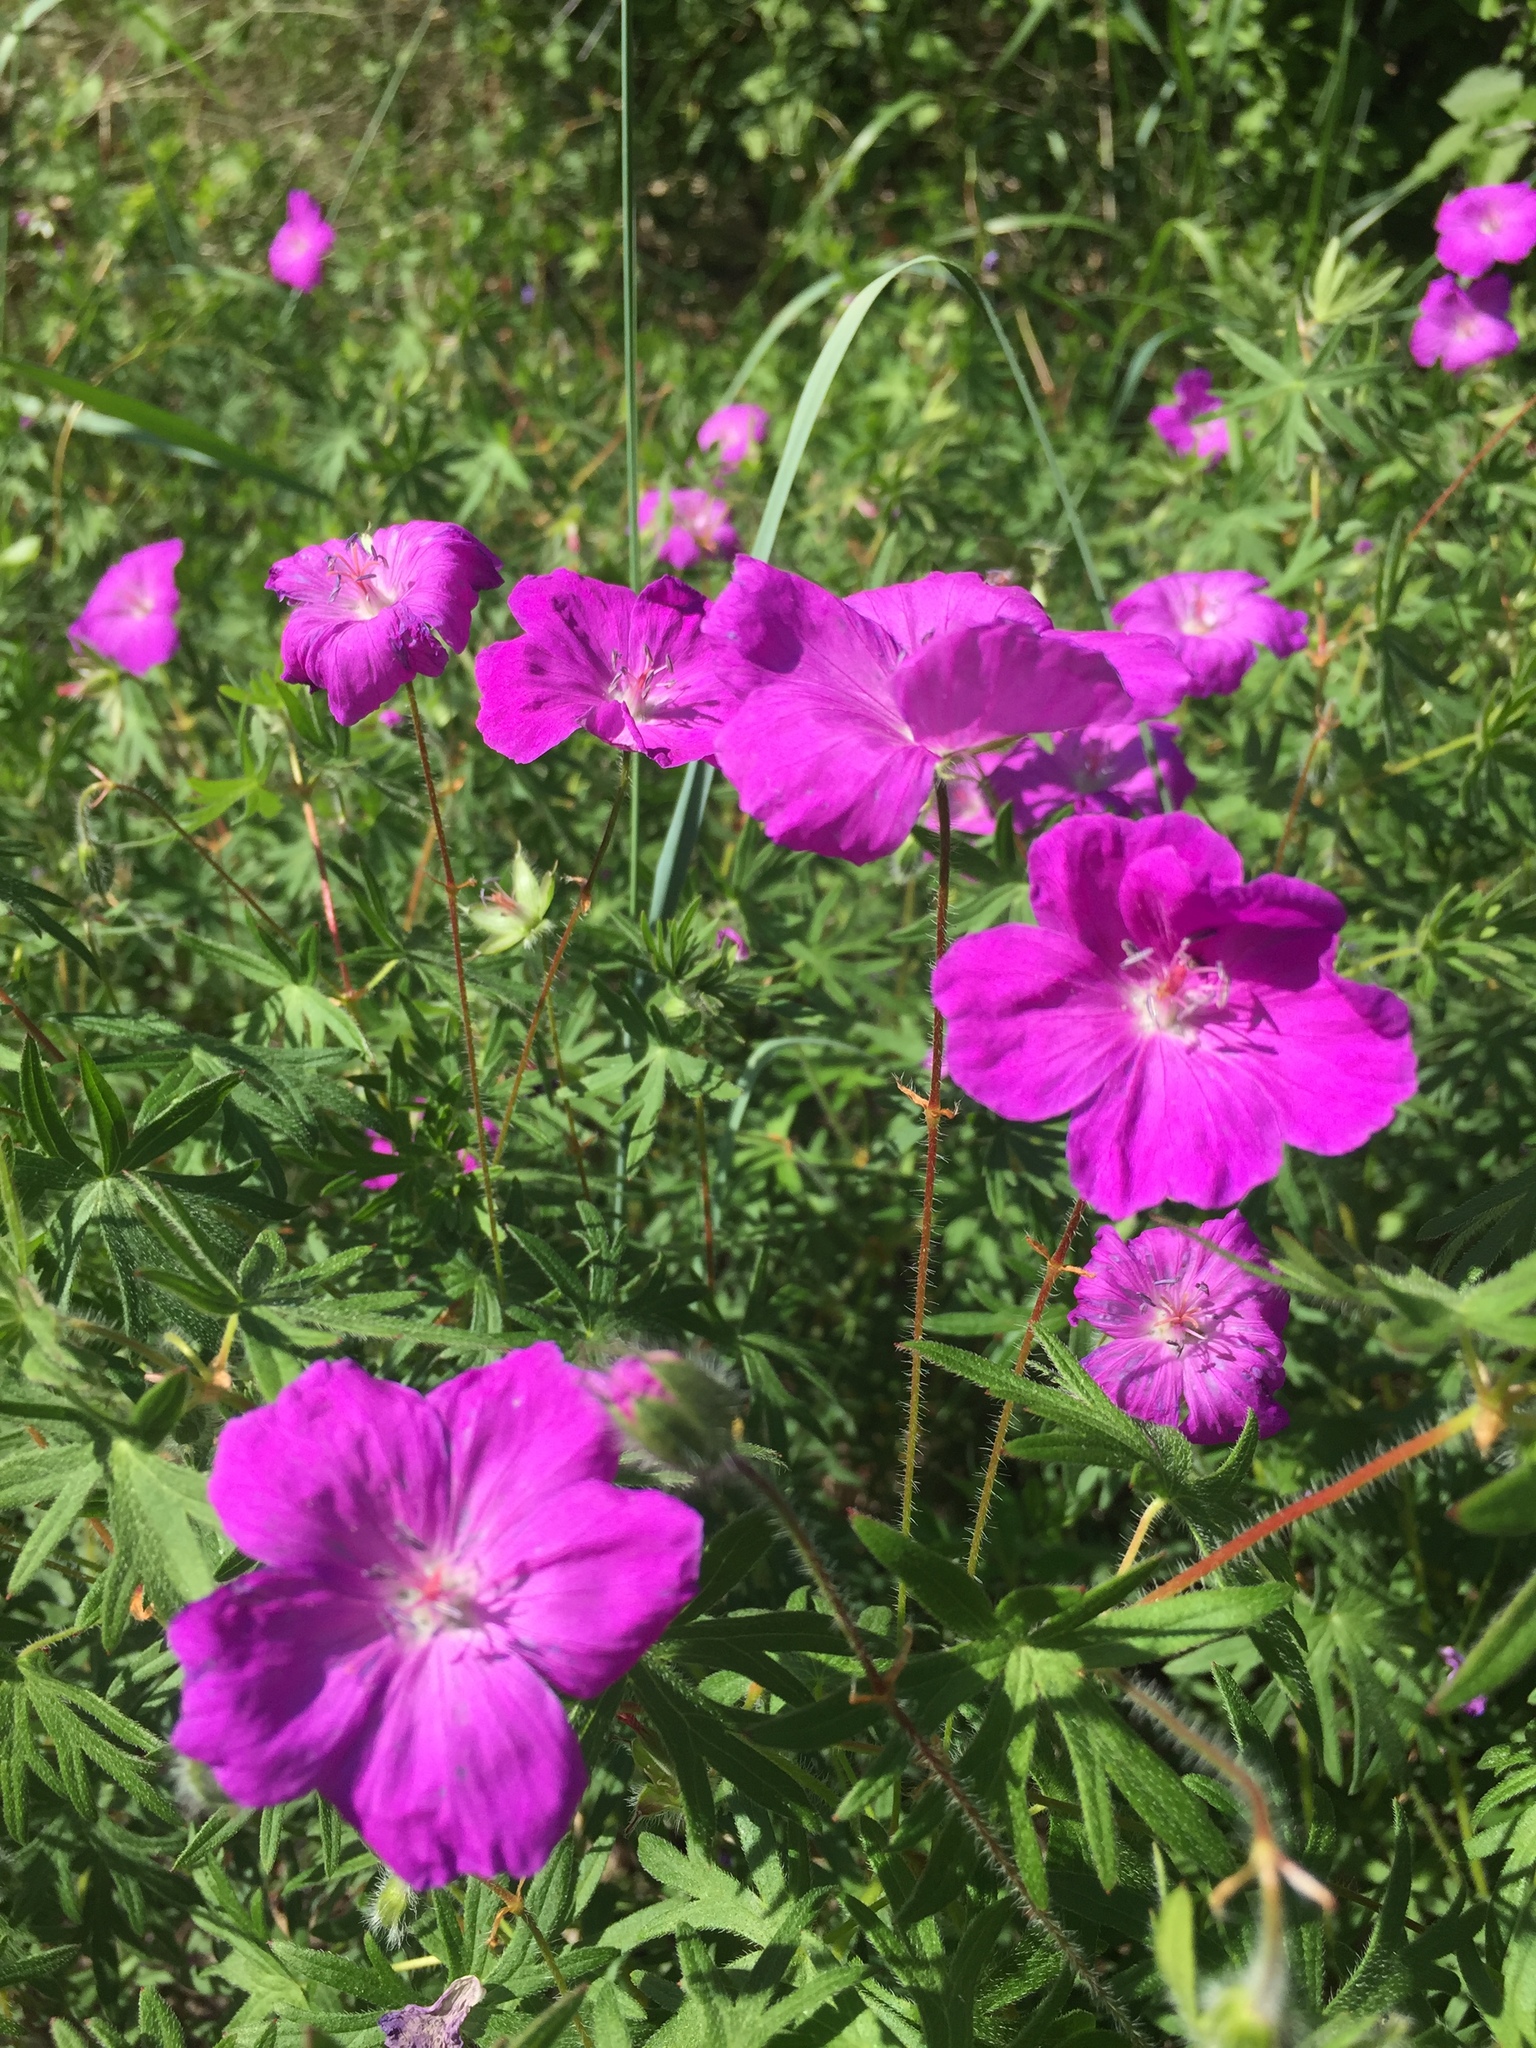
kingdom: Plantae
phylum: Tracheophyta
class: Magnoliopsida
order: Geraniales
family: Geraniaceae
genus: Geranium
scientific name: Geranium sanguineum
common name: Bloody crane's-bill
